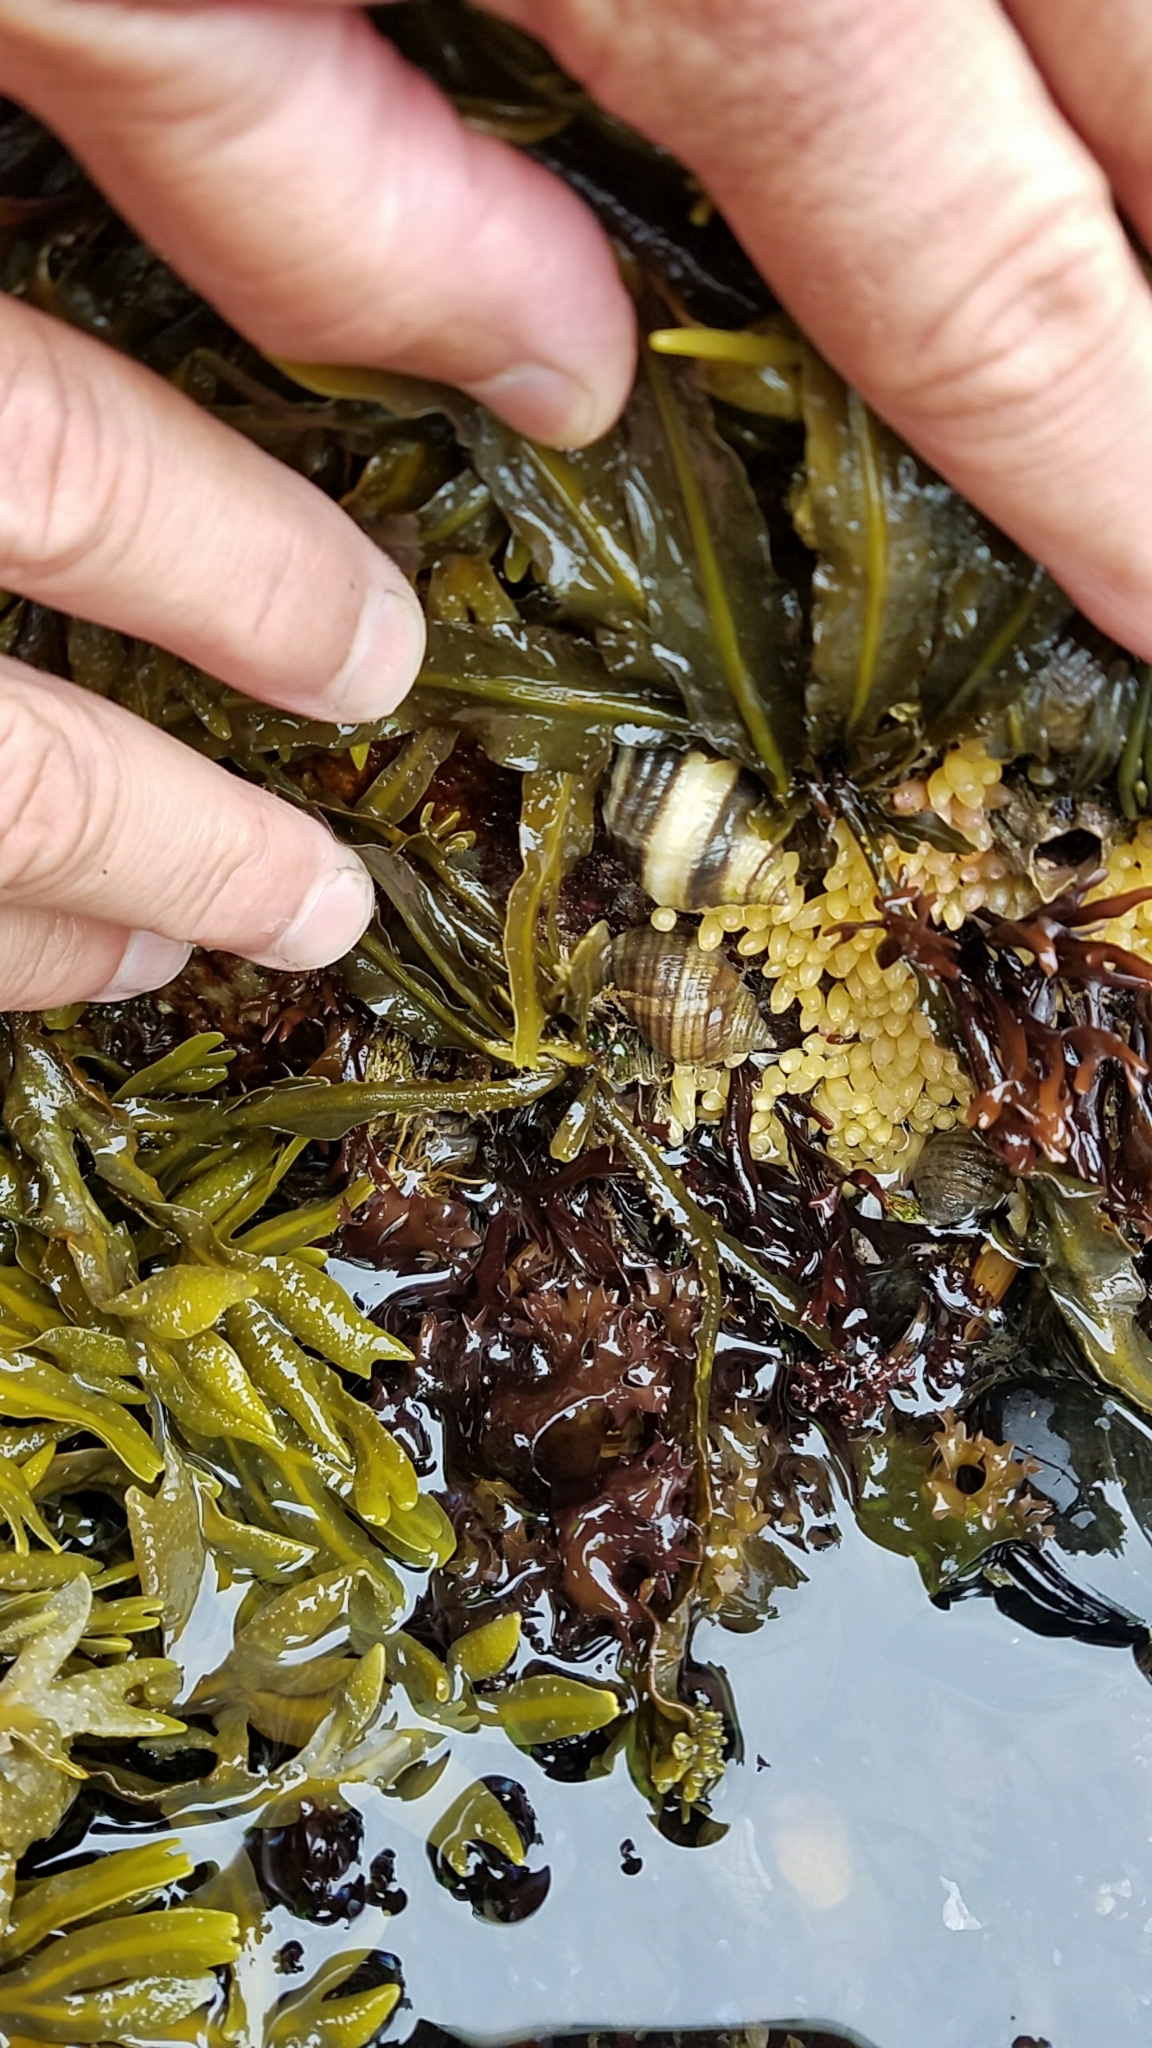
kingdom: Animalia
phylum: Mollusca
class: Gastropoda
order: Neogastropoda
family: Muricidae
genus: Nucella
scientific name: Nucella lapillus
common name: Dog whelk
